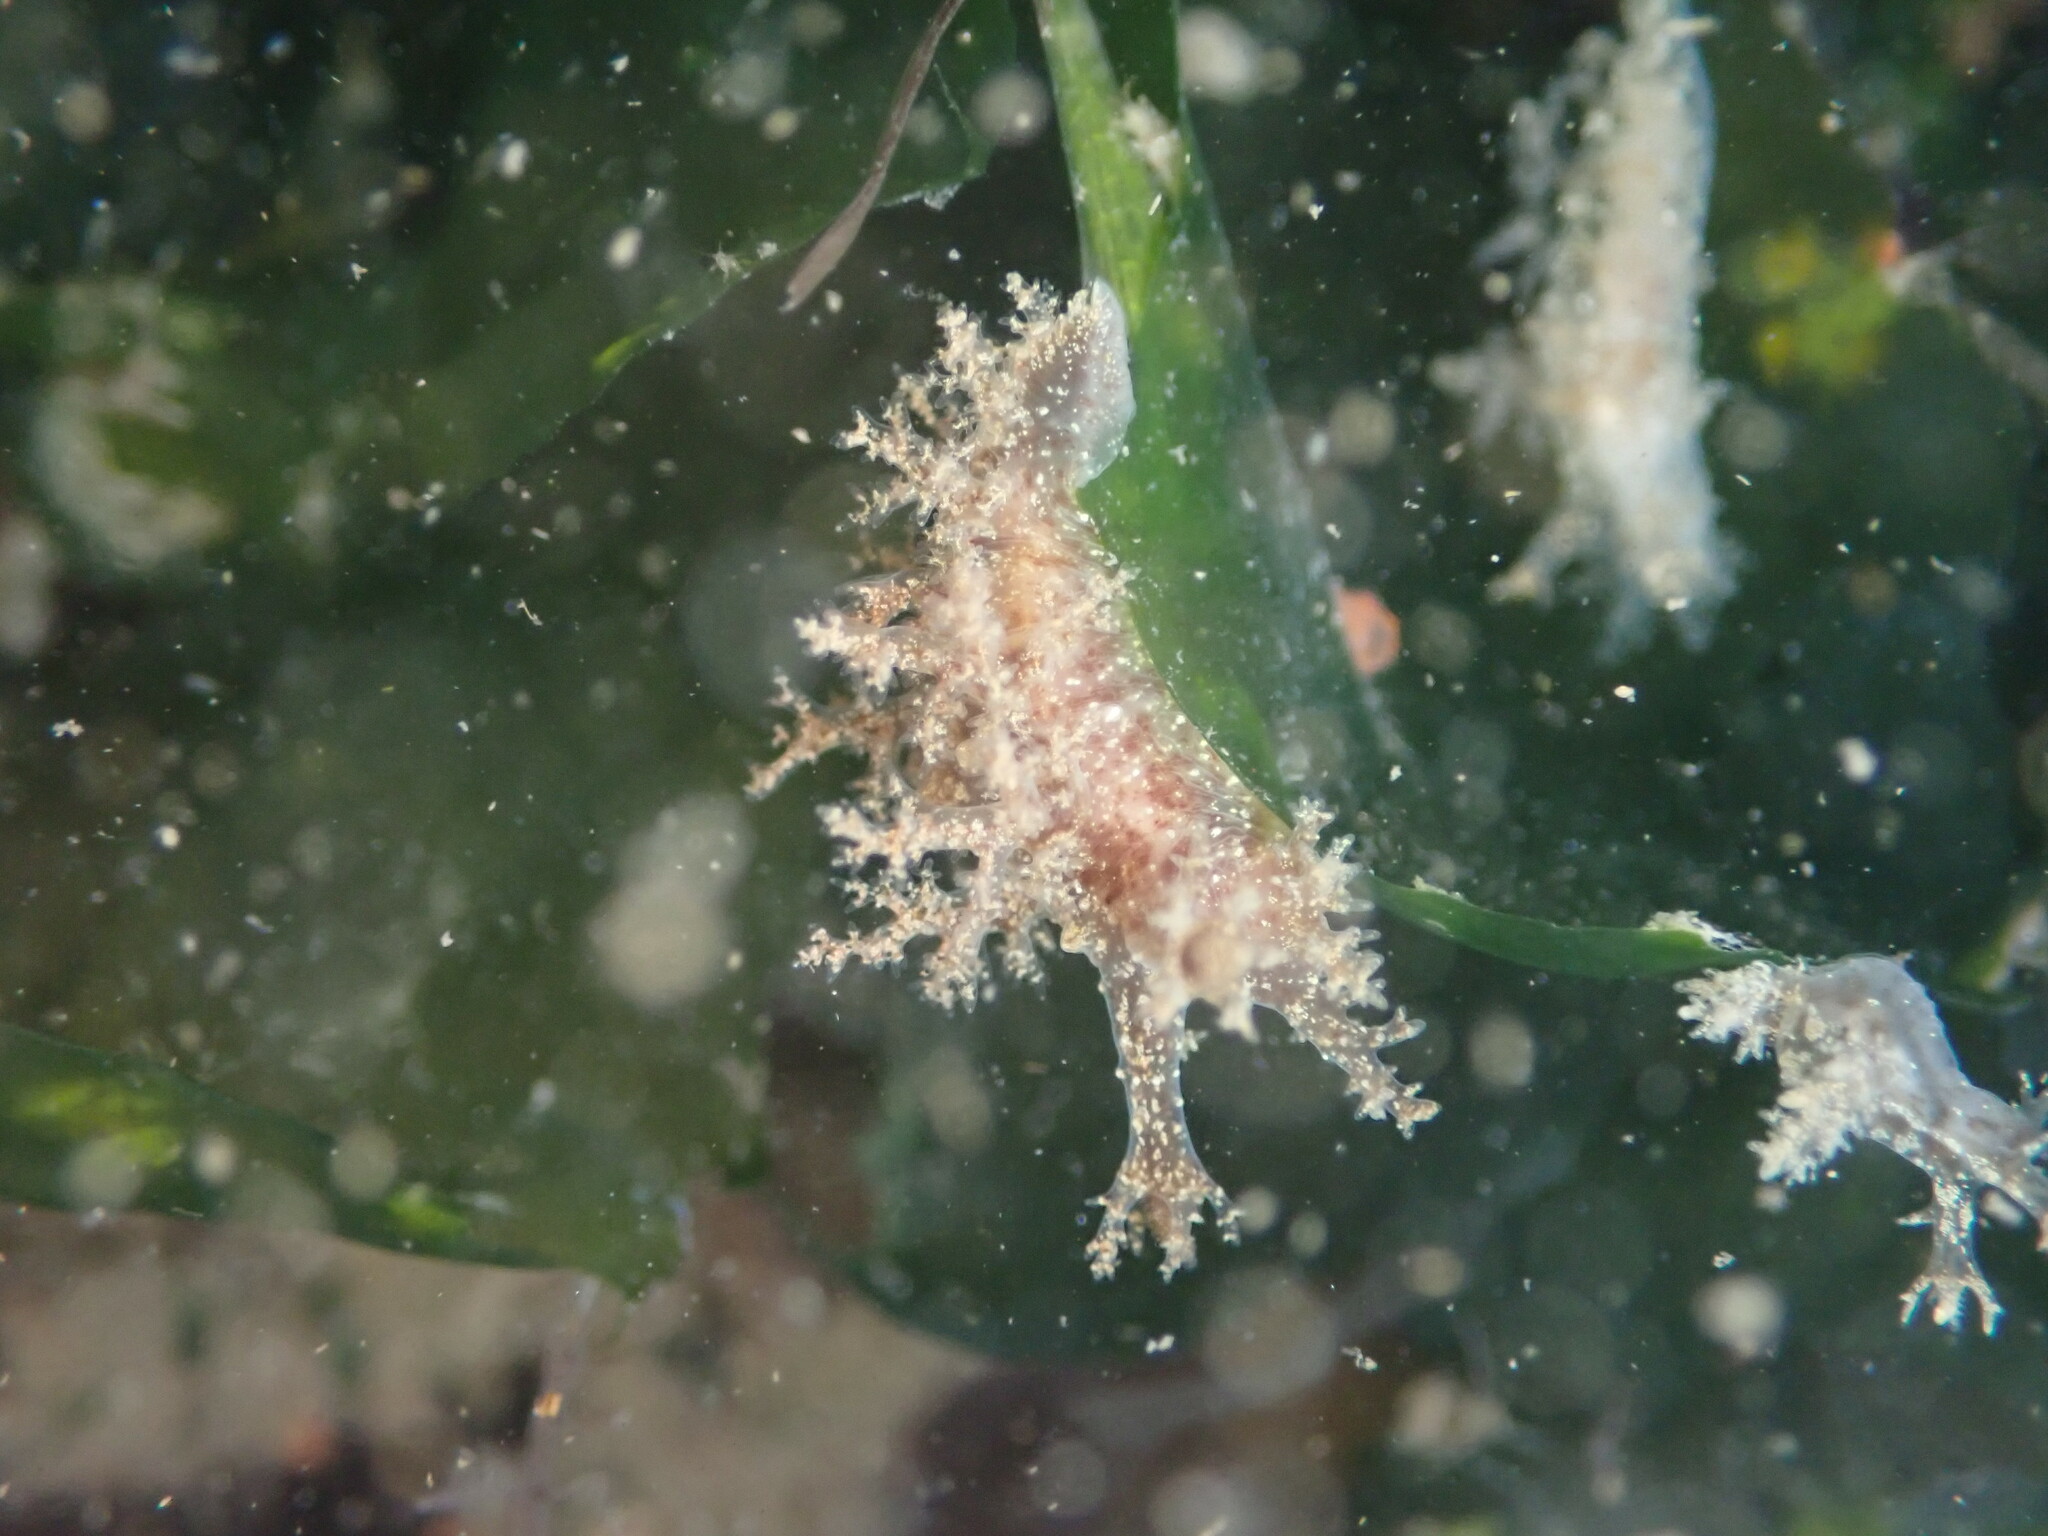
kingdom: Animalia
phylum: Mollusca
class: Gastropoda
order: Nudibranchia
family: Dendronotidae
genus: Dendronotus
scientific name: Dendronotus venustus
